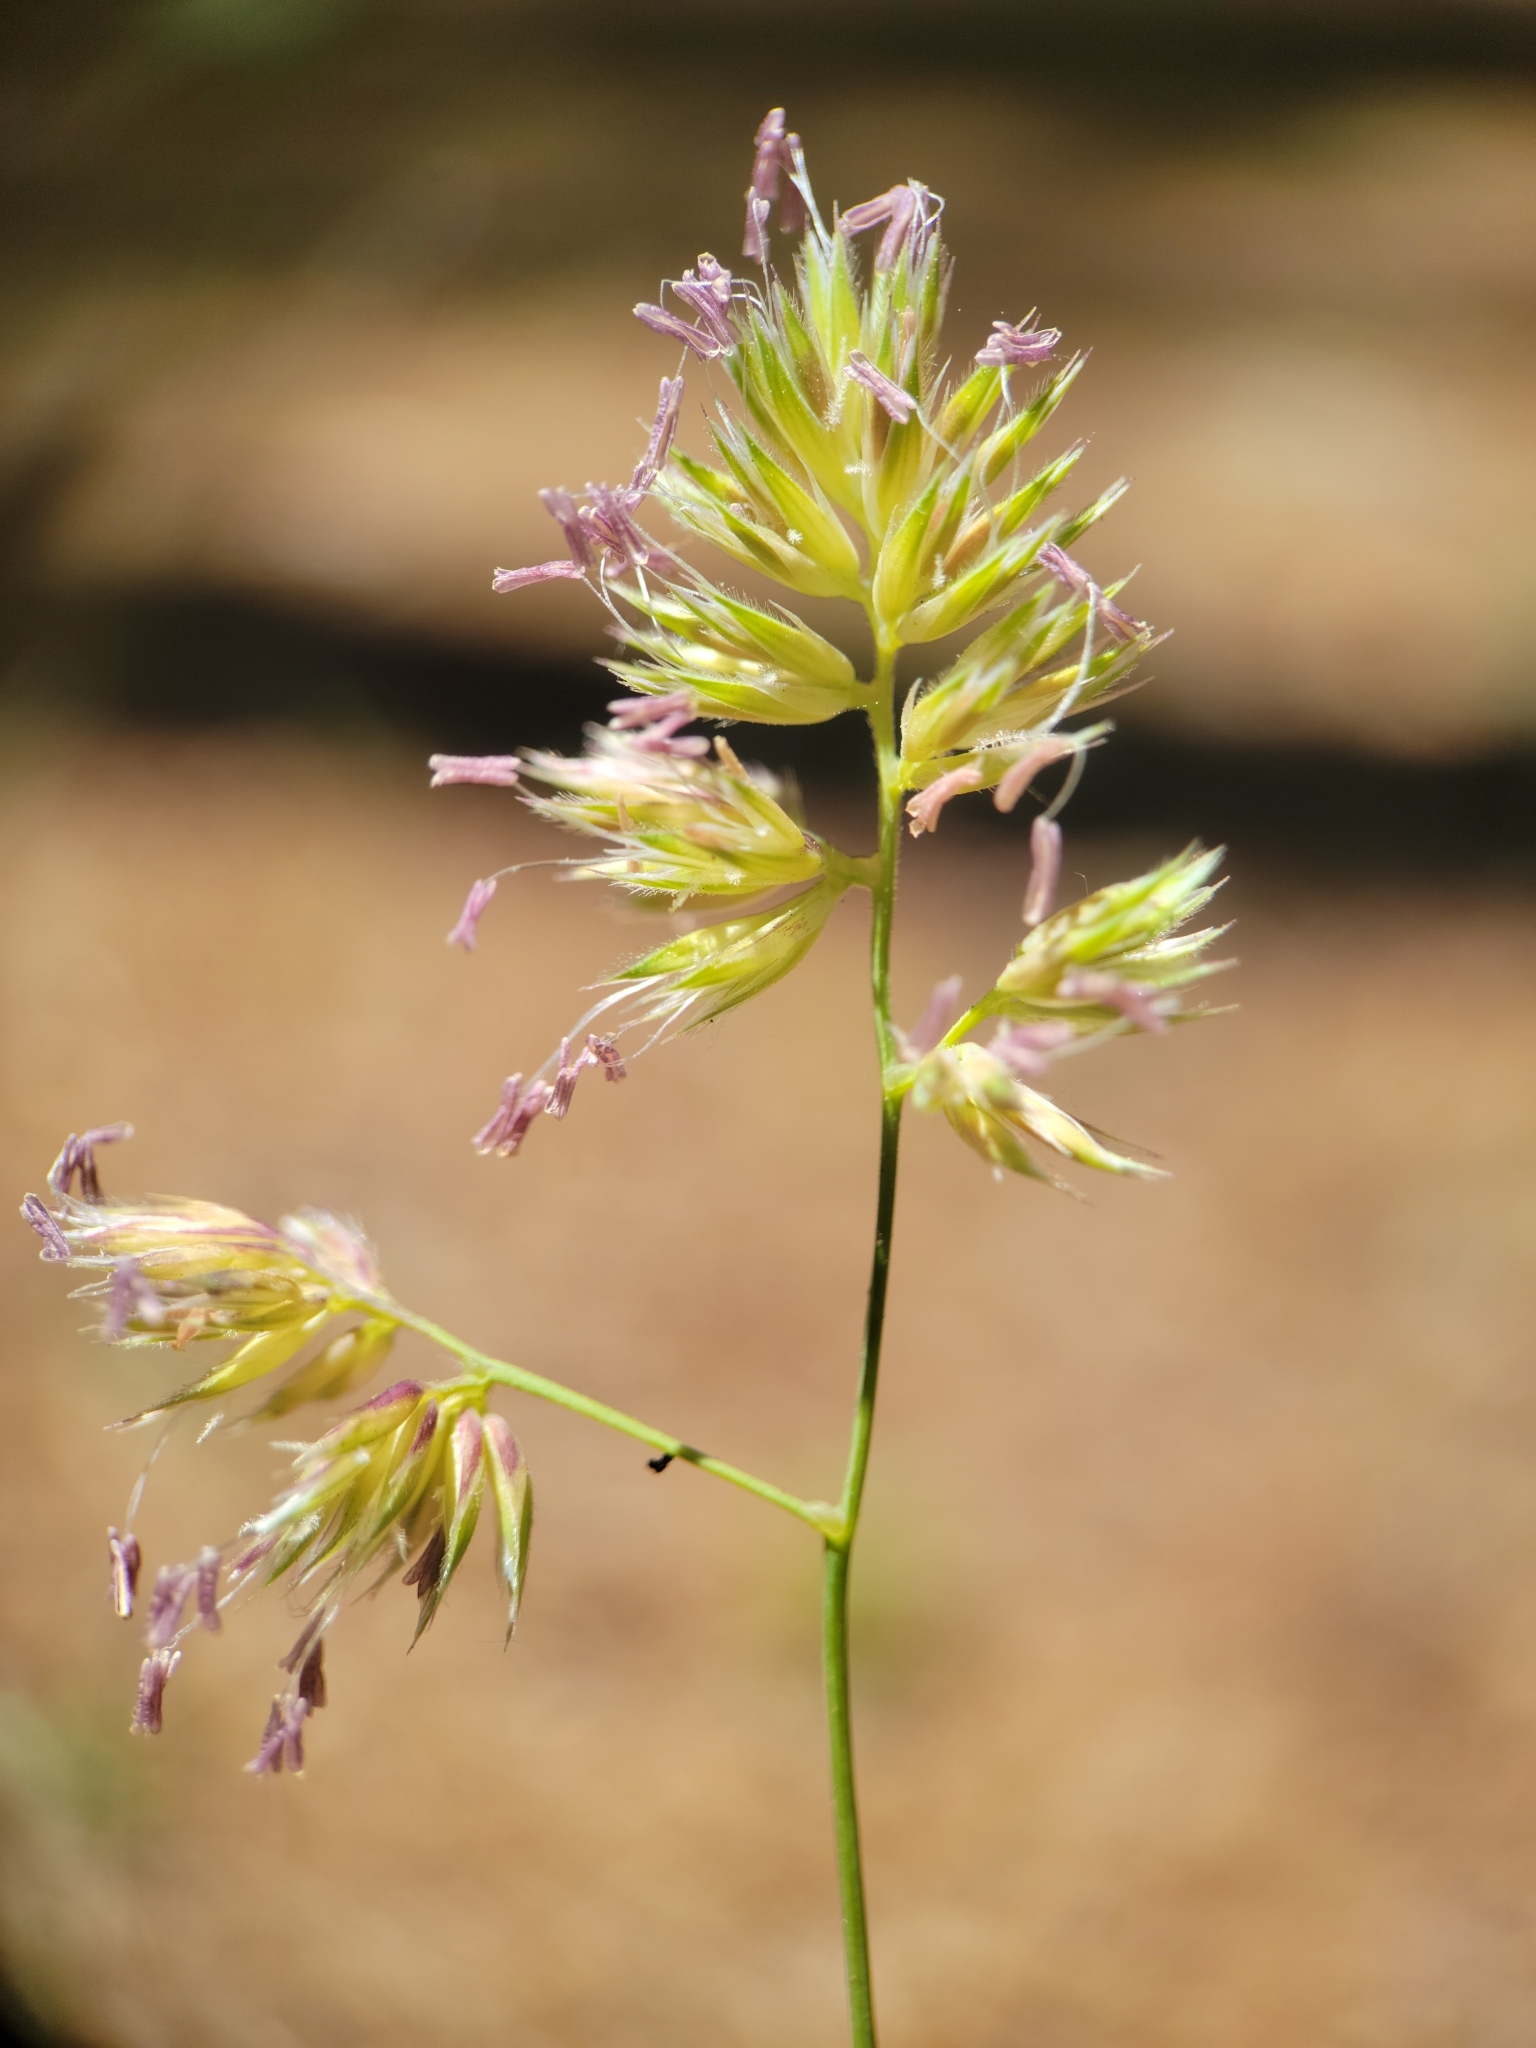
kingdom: Plantae
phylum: Tracheophyta
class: Liliopsida
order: Poales
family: Poaceae
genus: Dactylis
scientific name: Dactylis glomerata
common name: Orchardgrass
